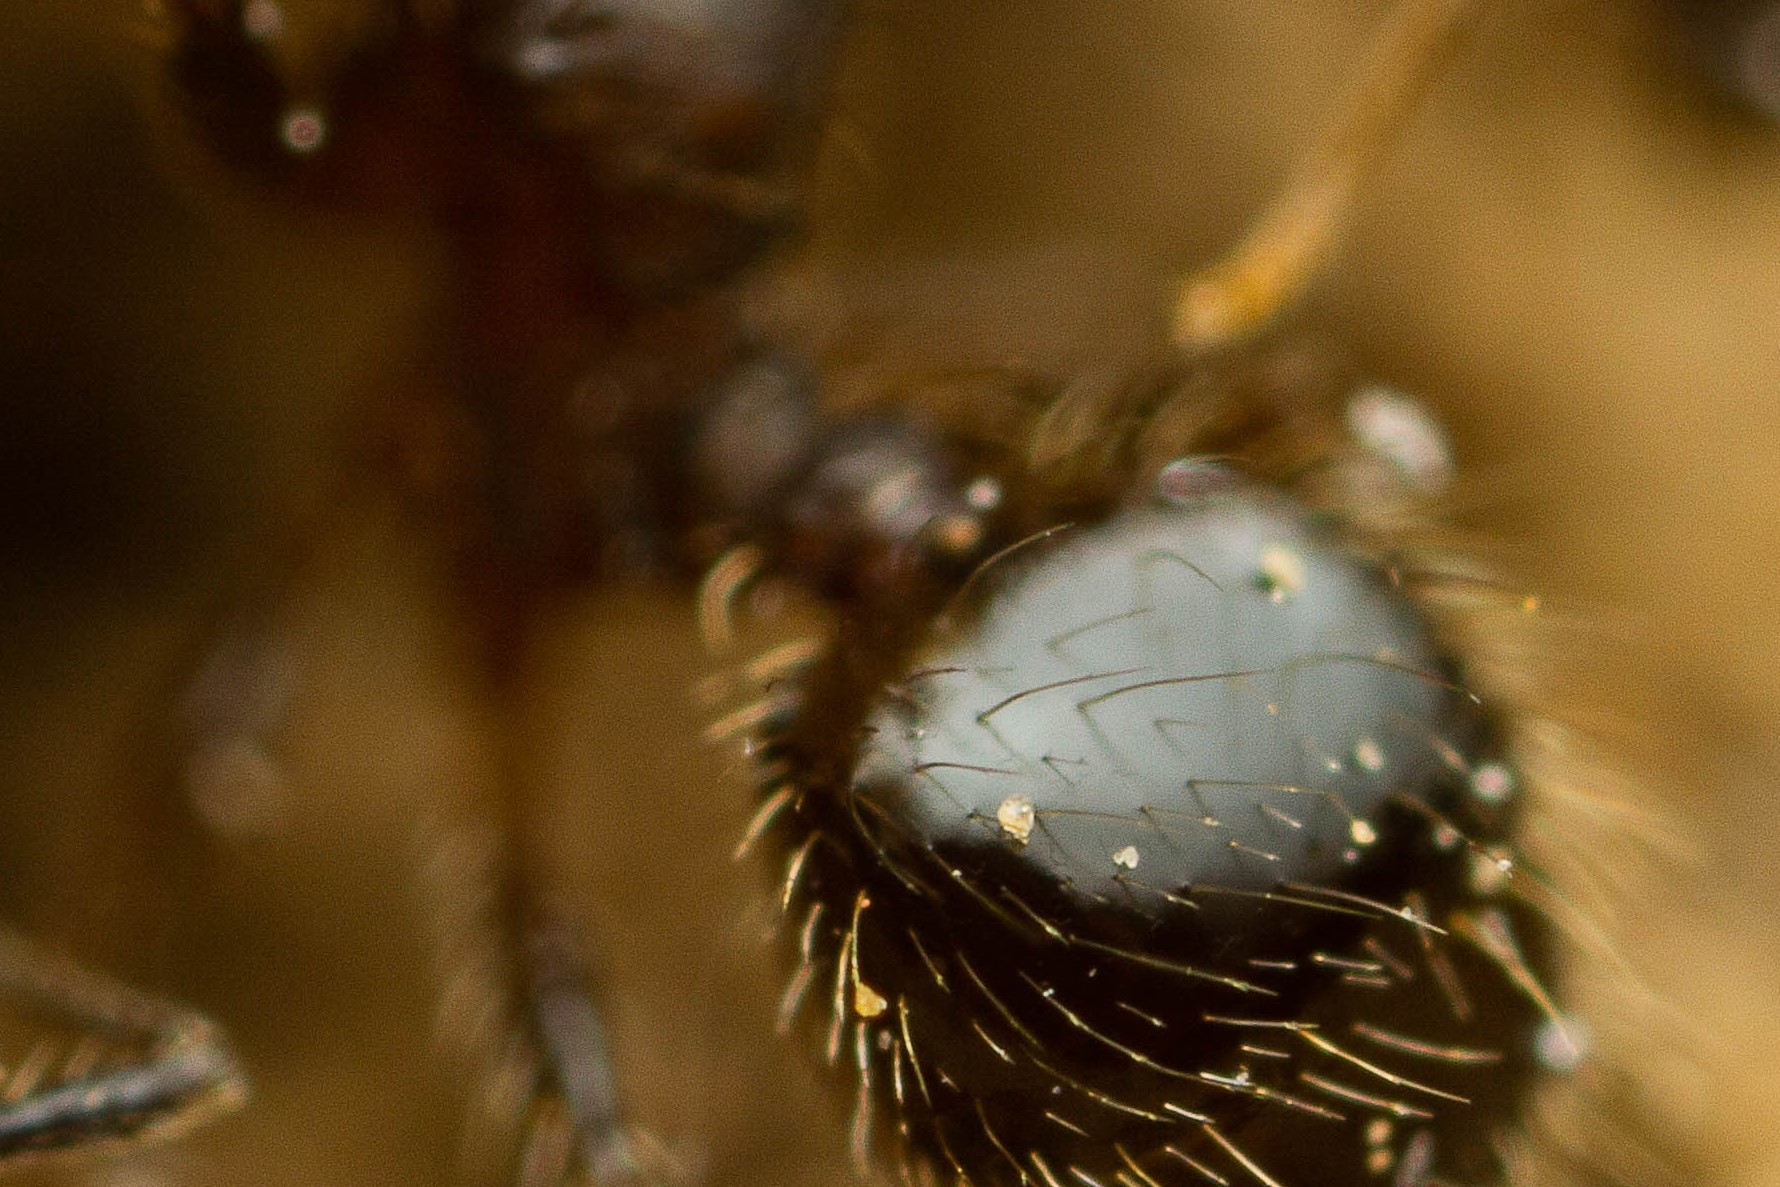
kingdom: Animalia
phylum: Arthropoda
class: Insecta
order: Hymenoptera
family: Formicidae
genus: Pheidole
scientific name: Pheidole
